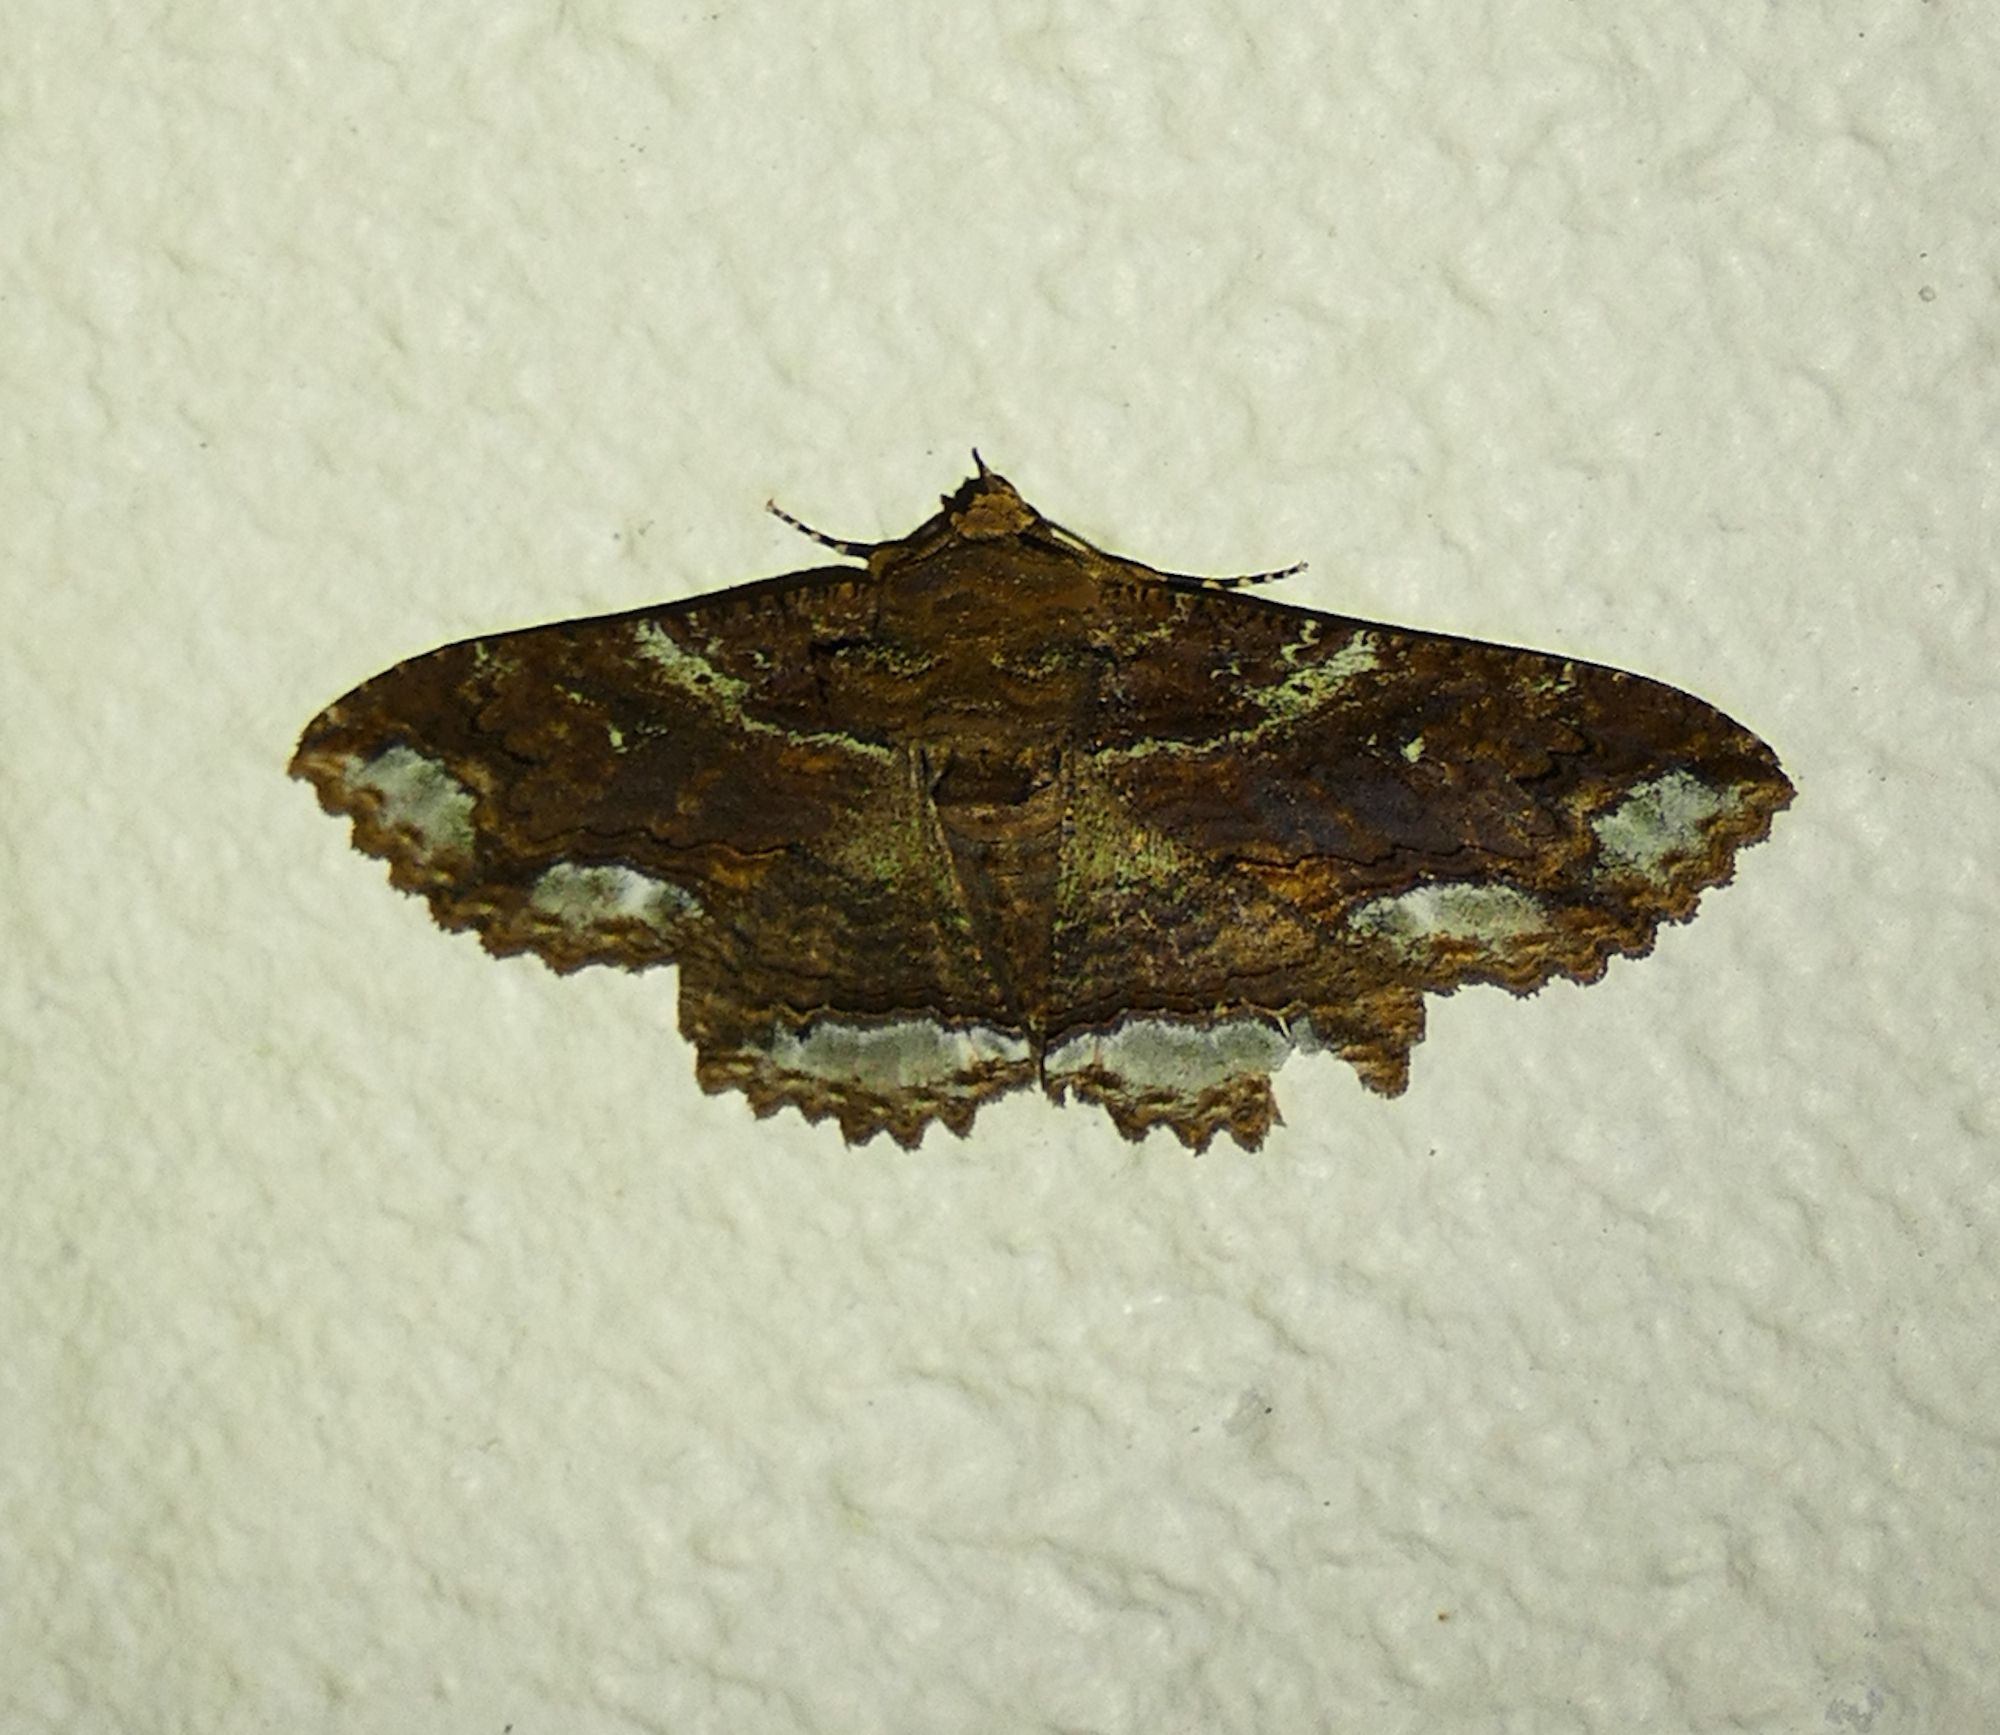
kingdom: Animalia
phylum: Arthropoda
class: Insecta
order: Lepidoptera
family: Erebidae
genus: Zale
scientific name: Zale lunata
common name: Lunate zale moth
